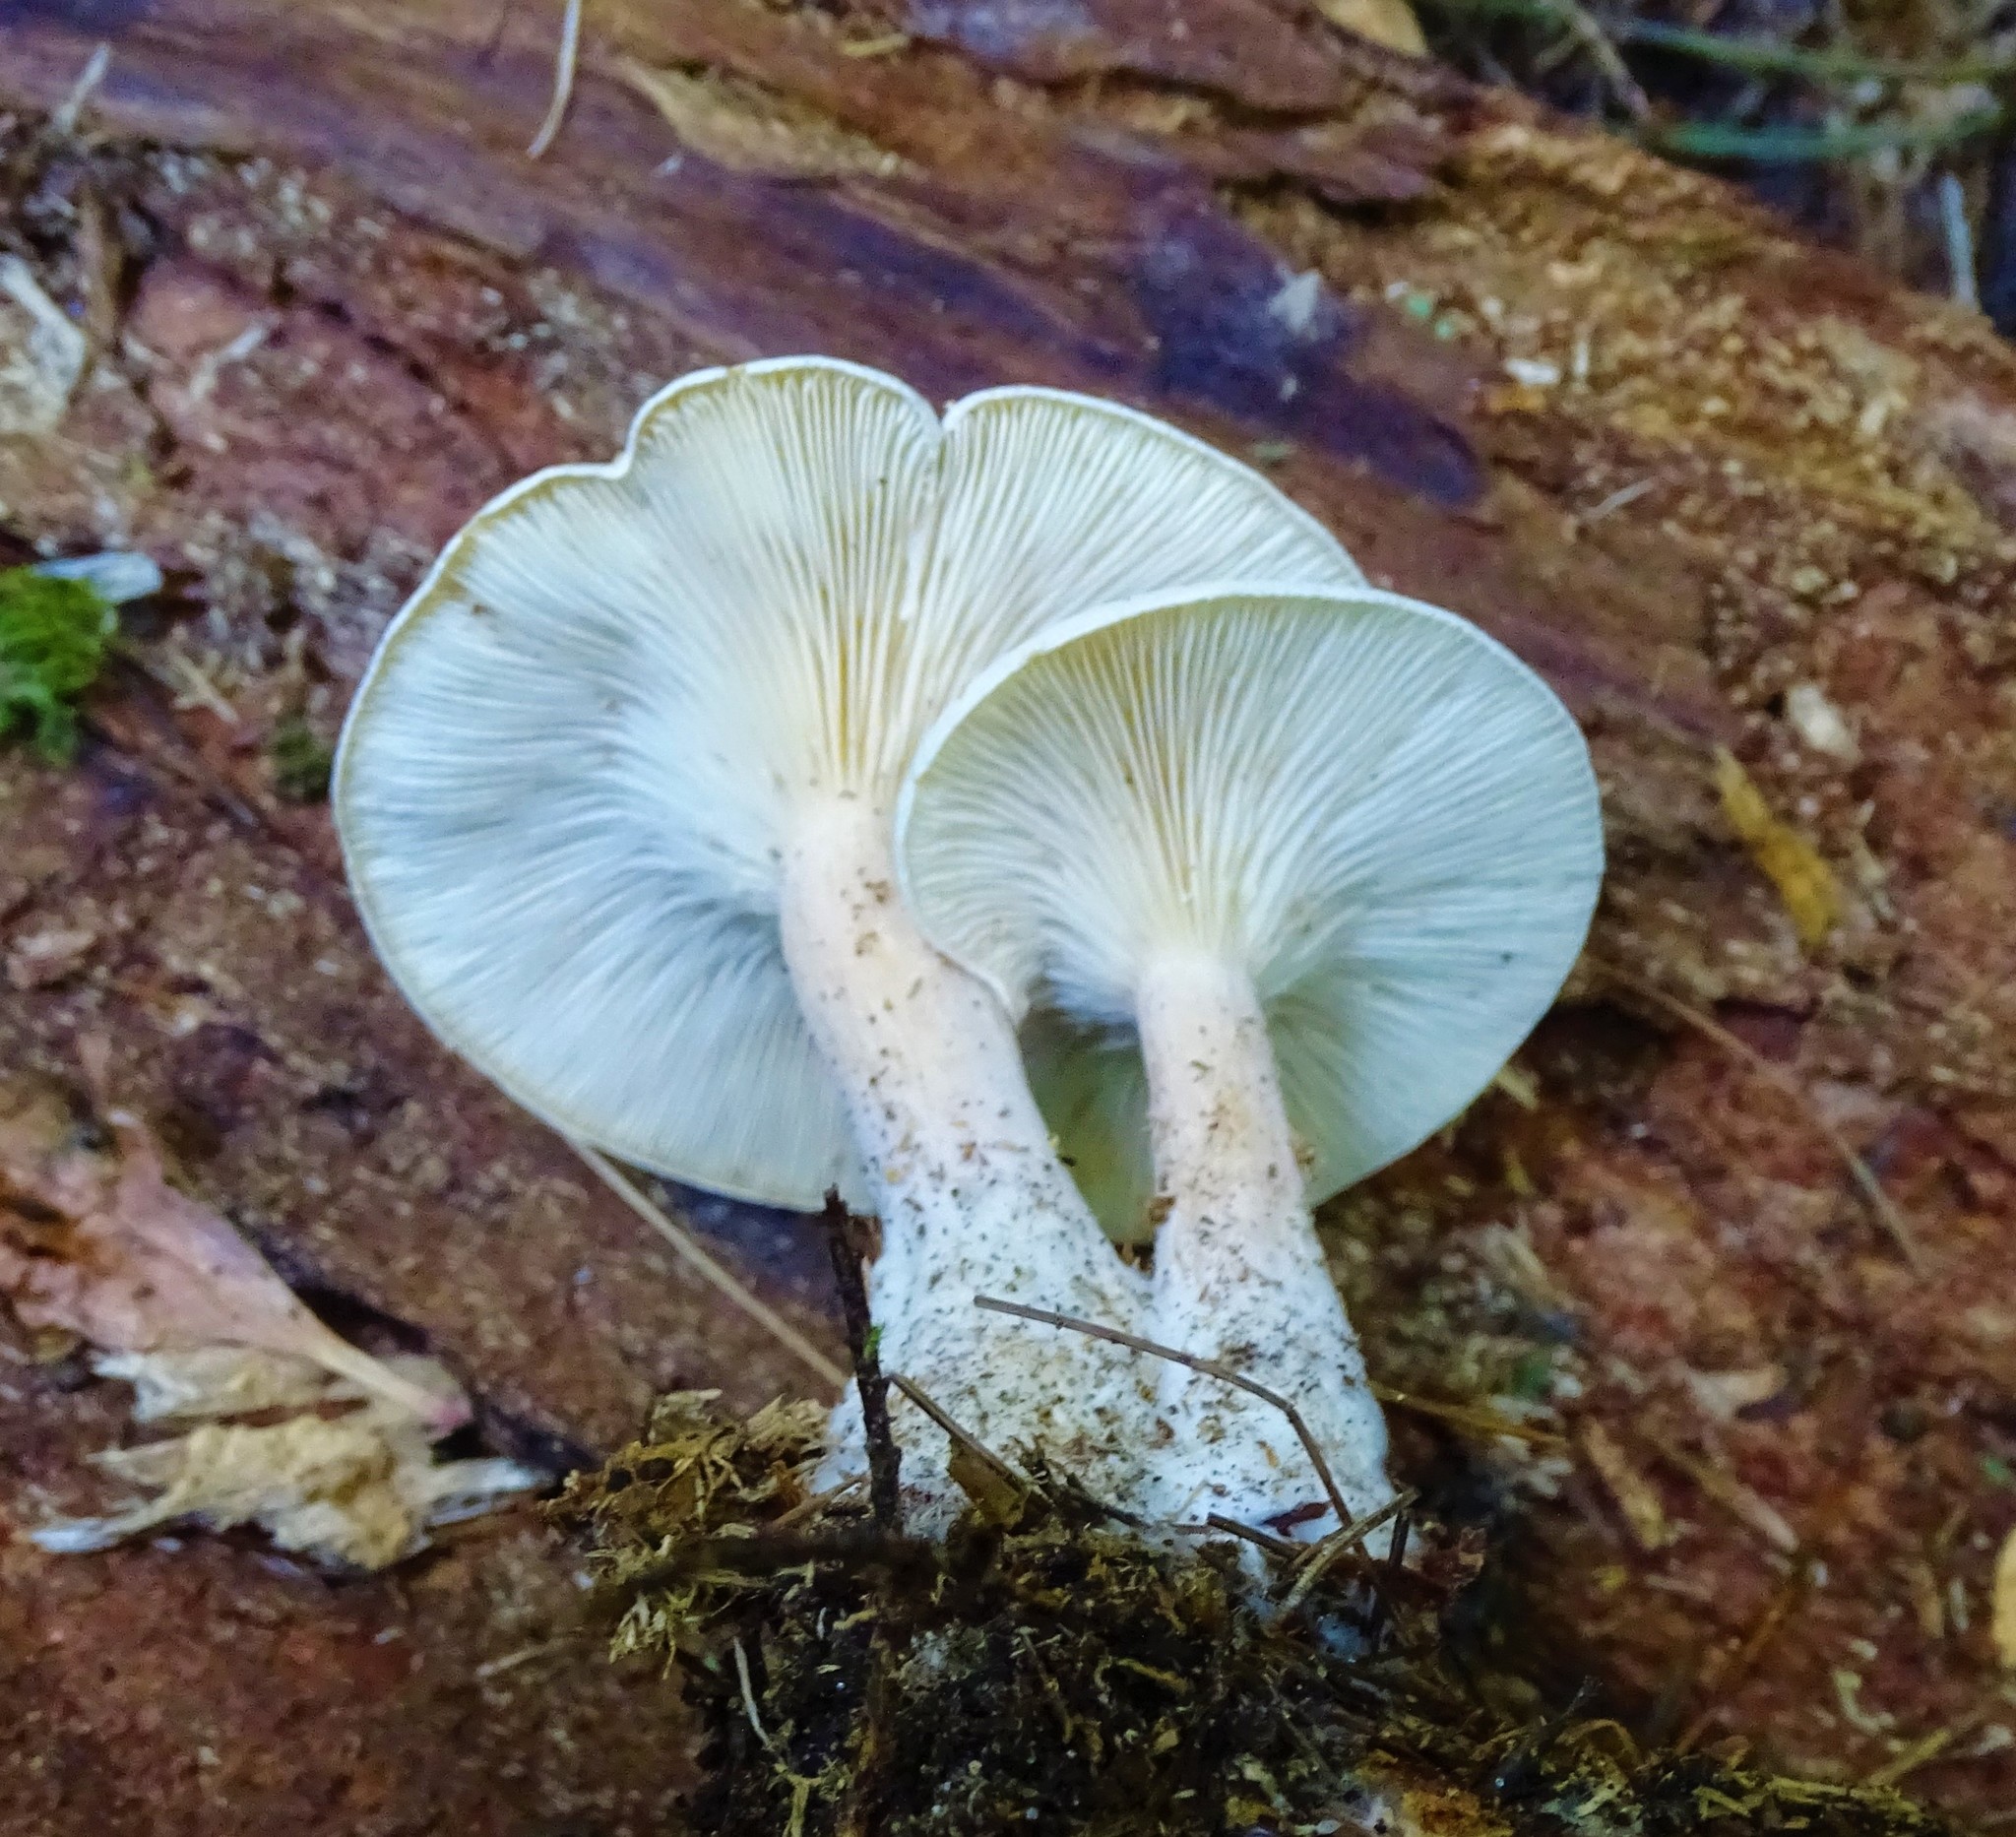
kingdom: Fungi
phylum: Basidiomycota
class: Agaricomycetes
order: Agaricales
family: Tricholomataceae
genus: Collybia
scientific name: Collybia
